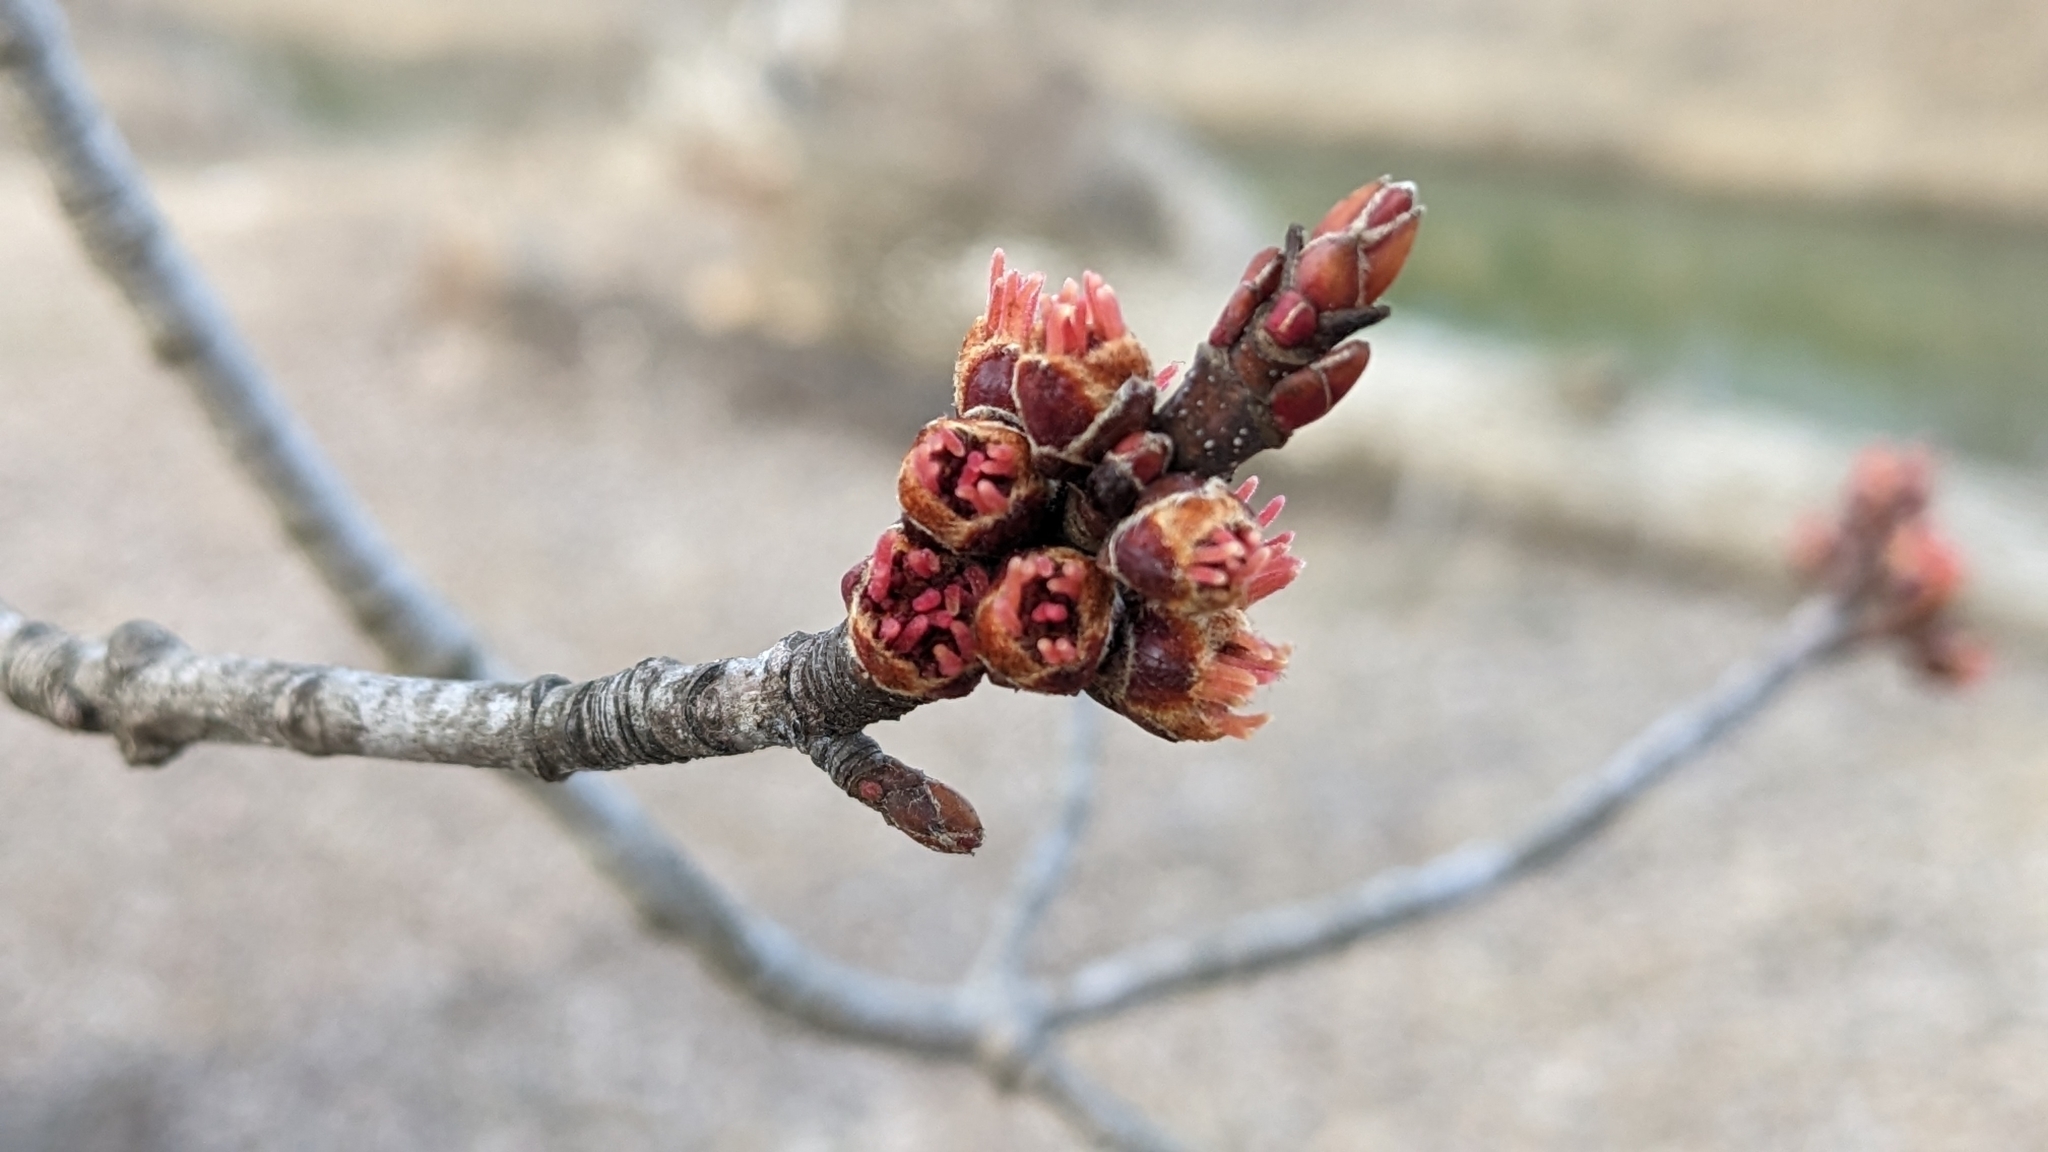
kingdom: Plantae
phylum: Tracheophyta
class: Magnoliopsida
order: Sapindales
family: Sapindaceae
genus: Acer
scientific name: Acer saccharinum
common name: Silver maple
